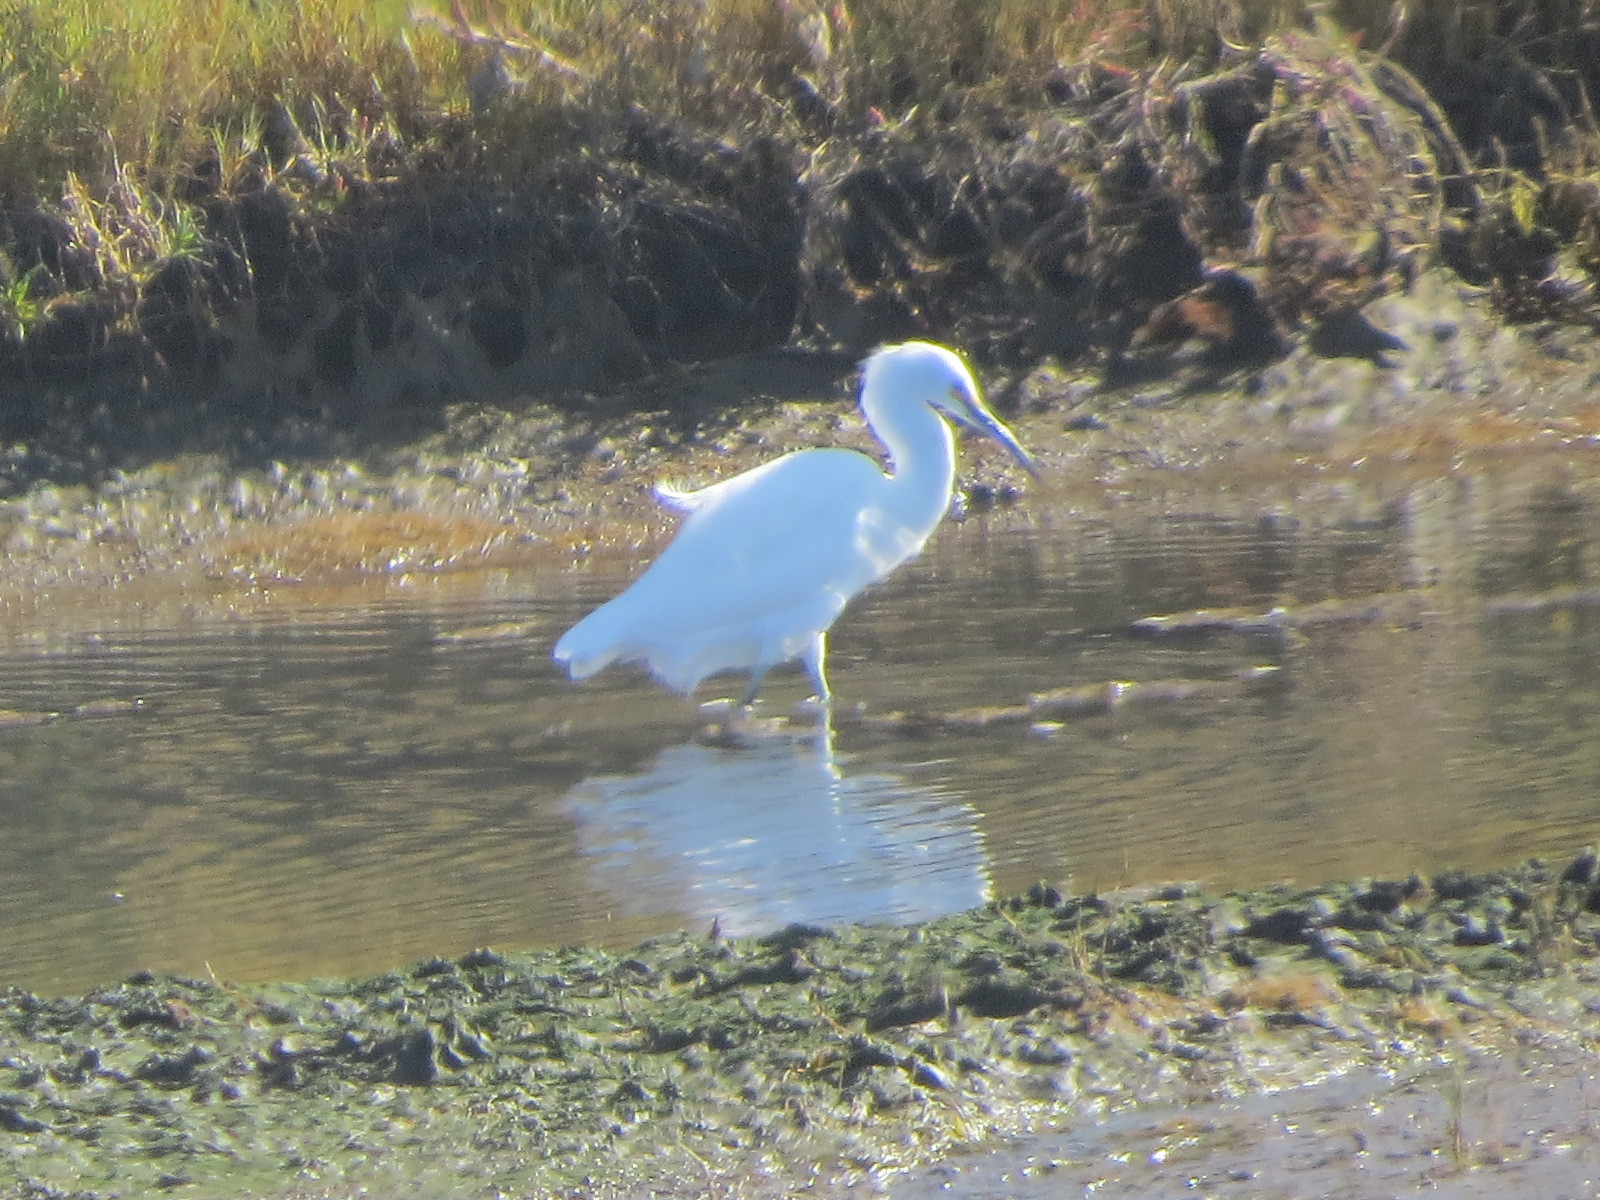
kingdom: Animalia
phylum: Chordata
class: Aves
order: Pelecaniformes
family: Ardeidae
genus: Egretta
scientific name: Egretta thula
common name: Snowy egret
